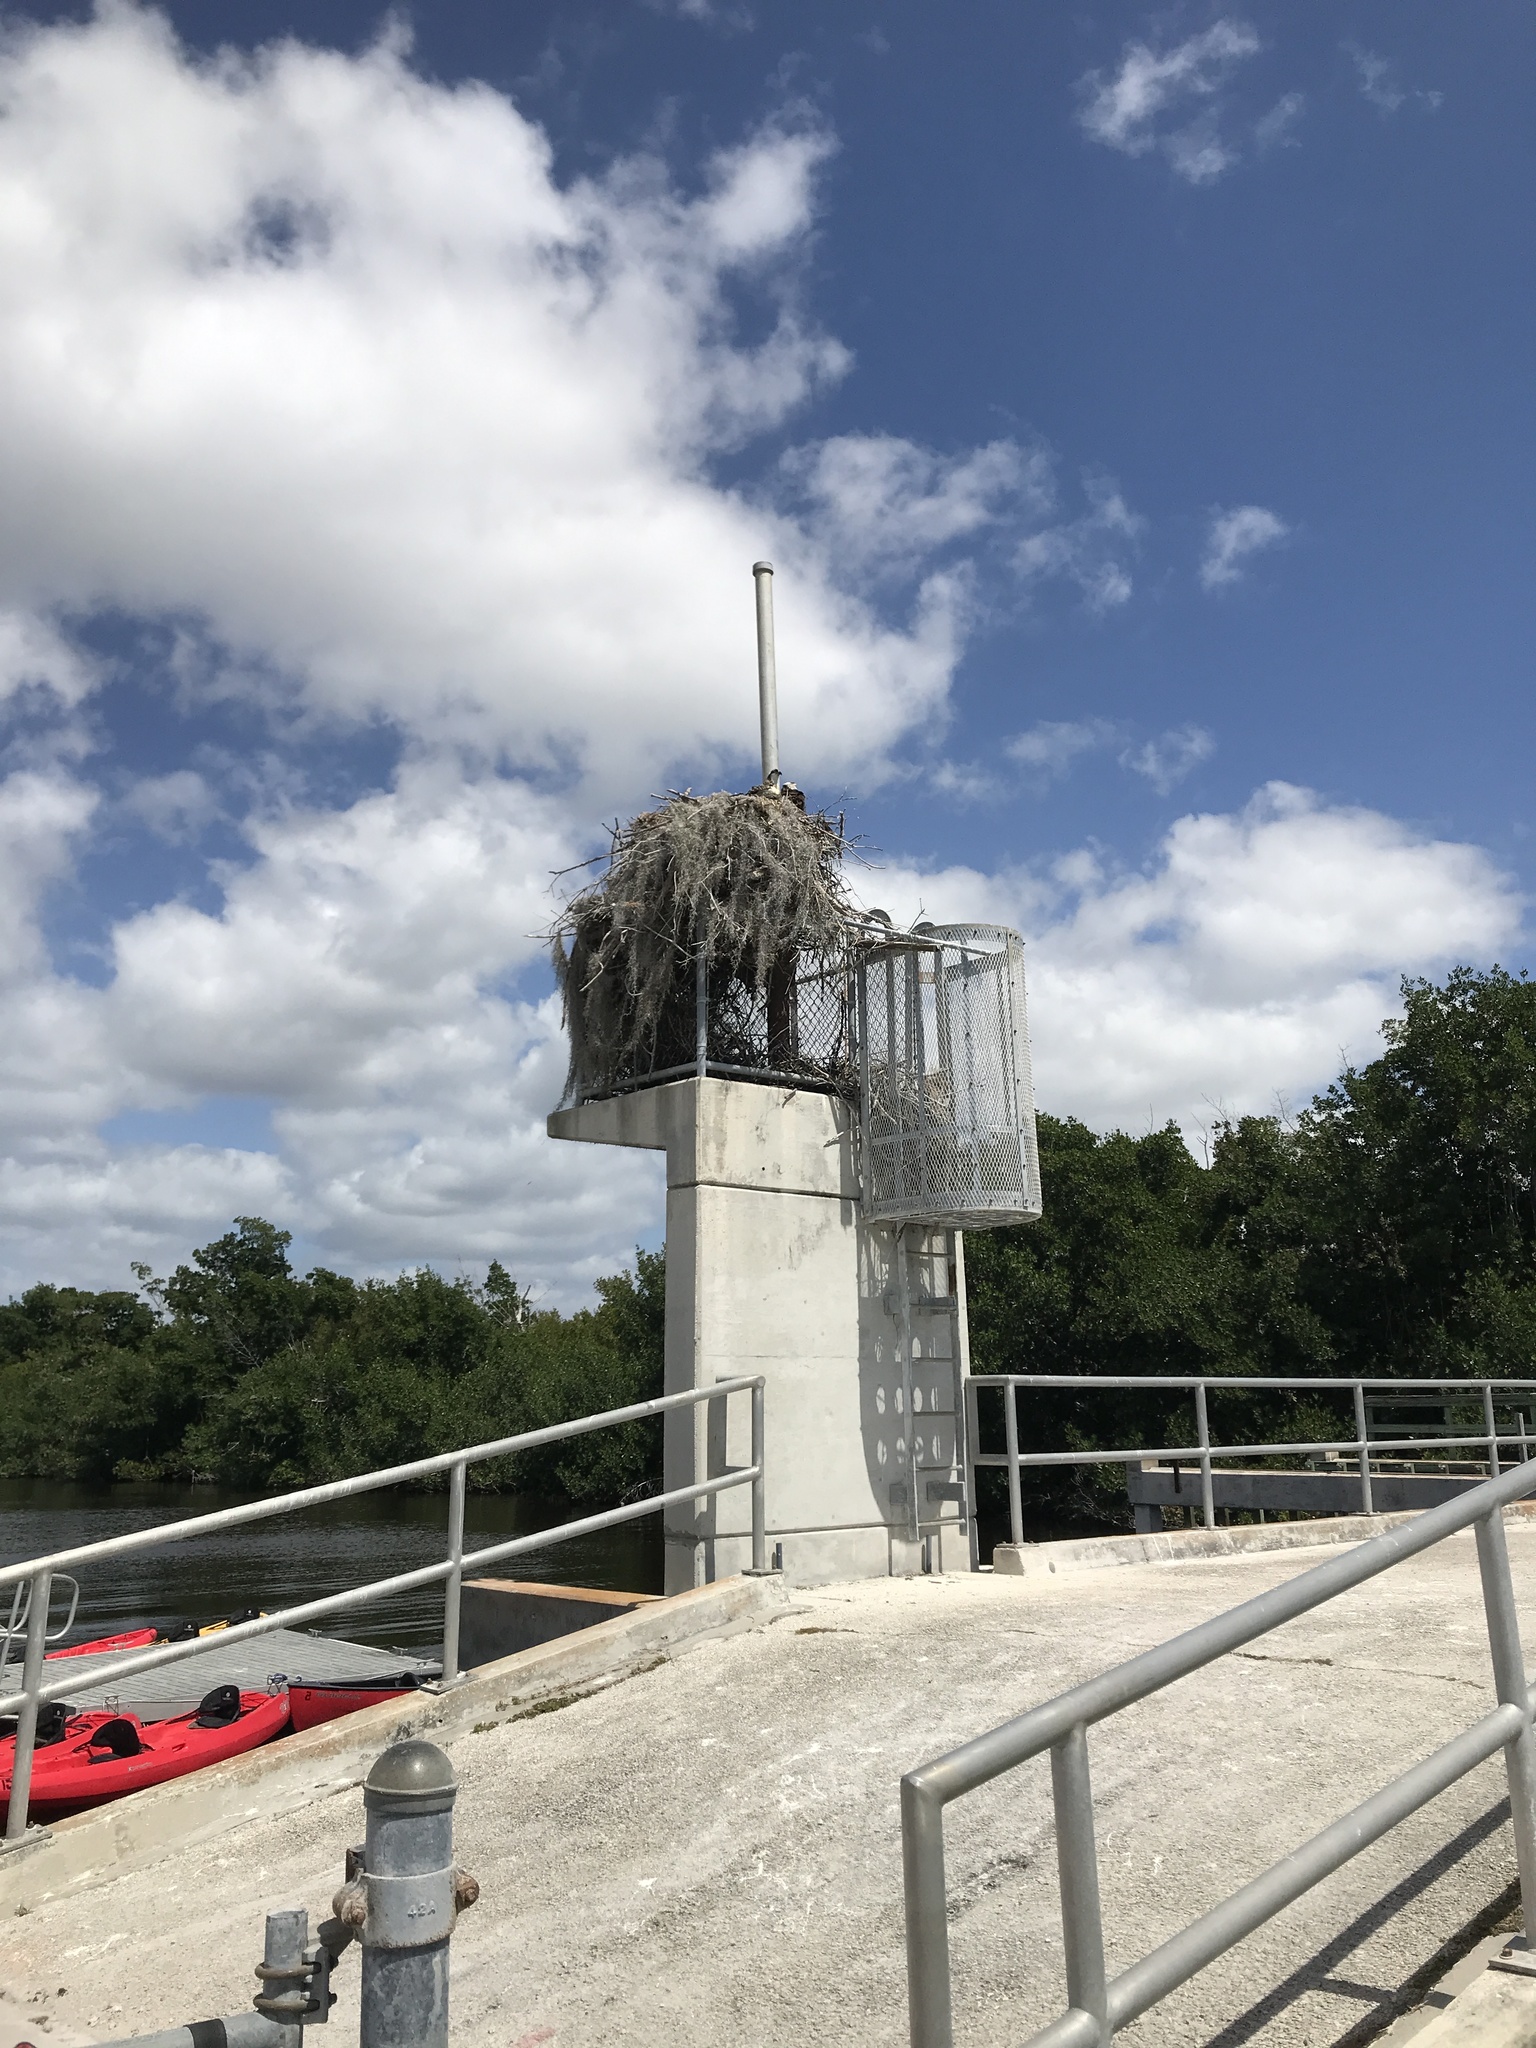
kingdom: Animalia
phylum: Chordata
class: Aves
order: Accipitriformes
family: Pandionidae
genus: Pandion
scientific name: Pandion haliaetus
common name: Osprey
